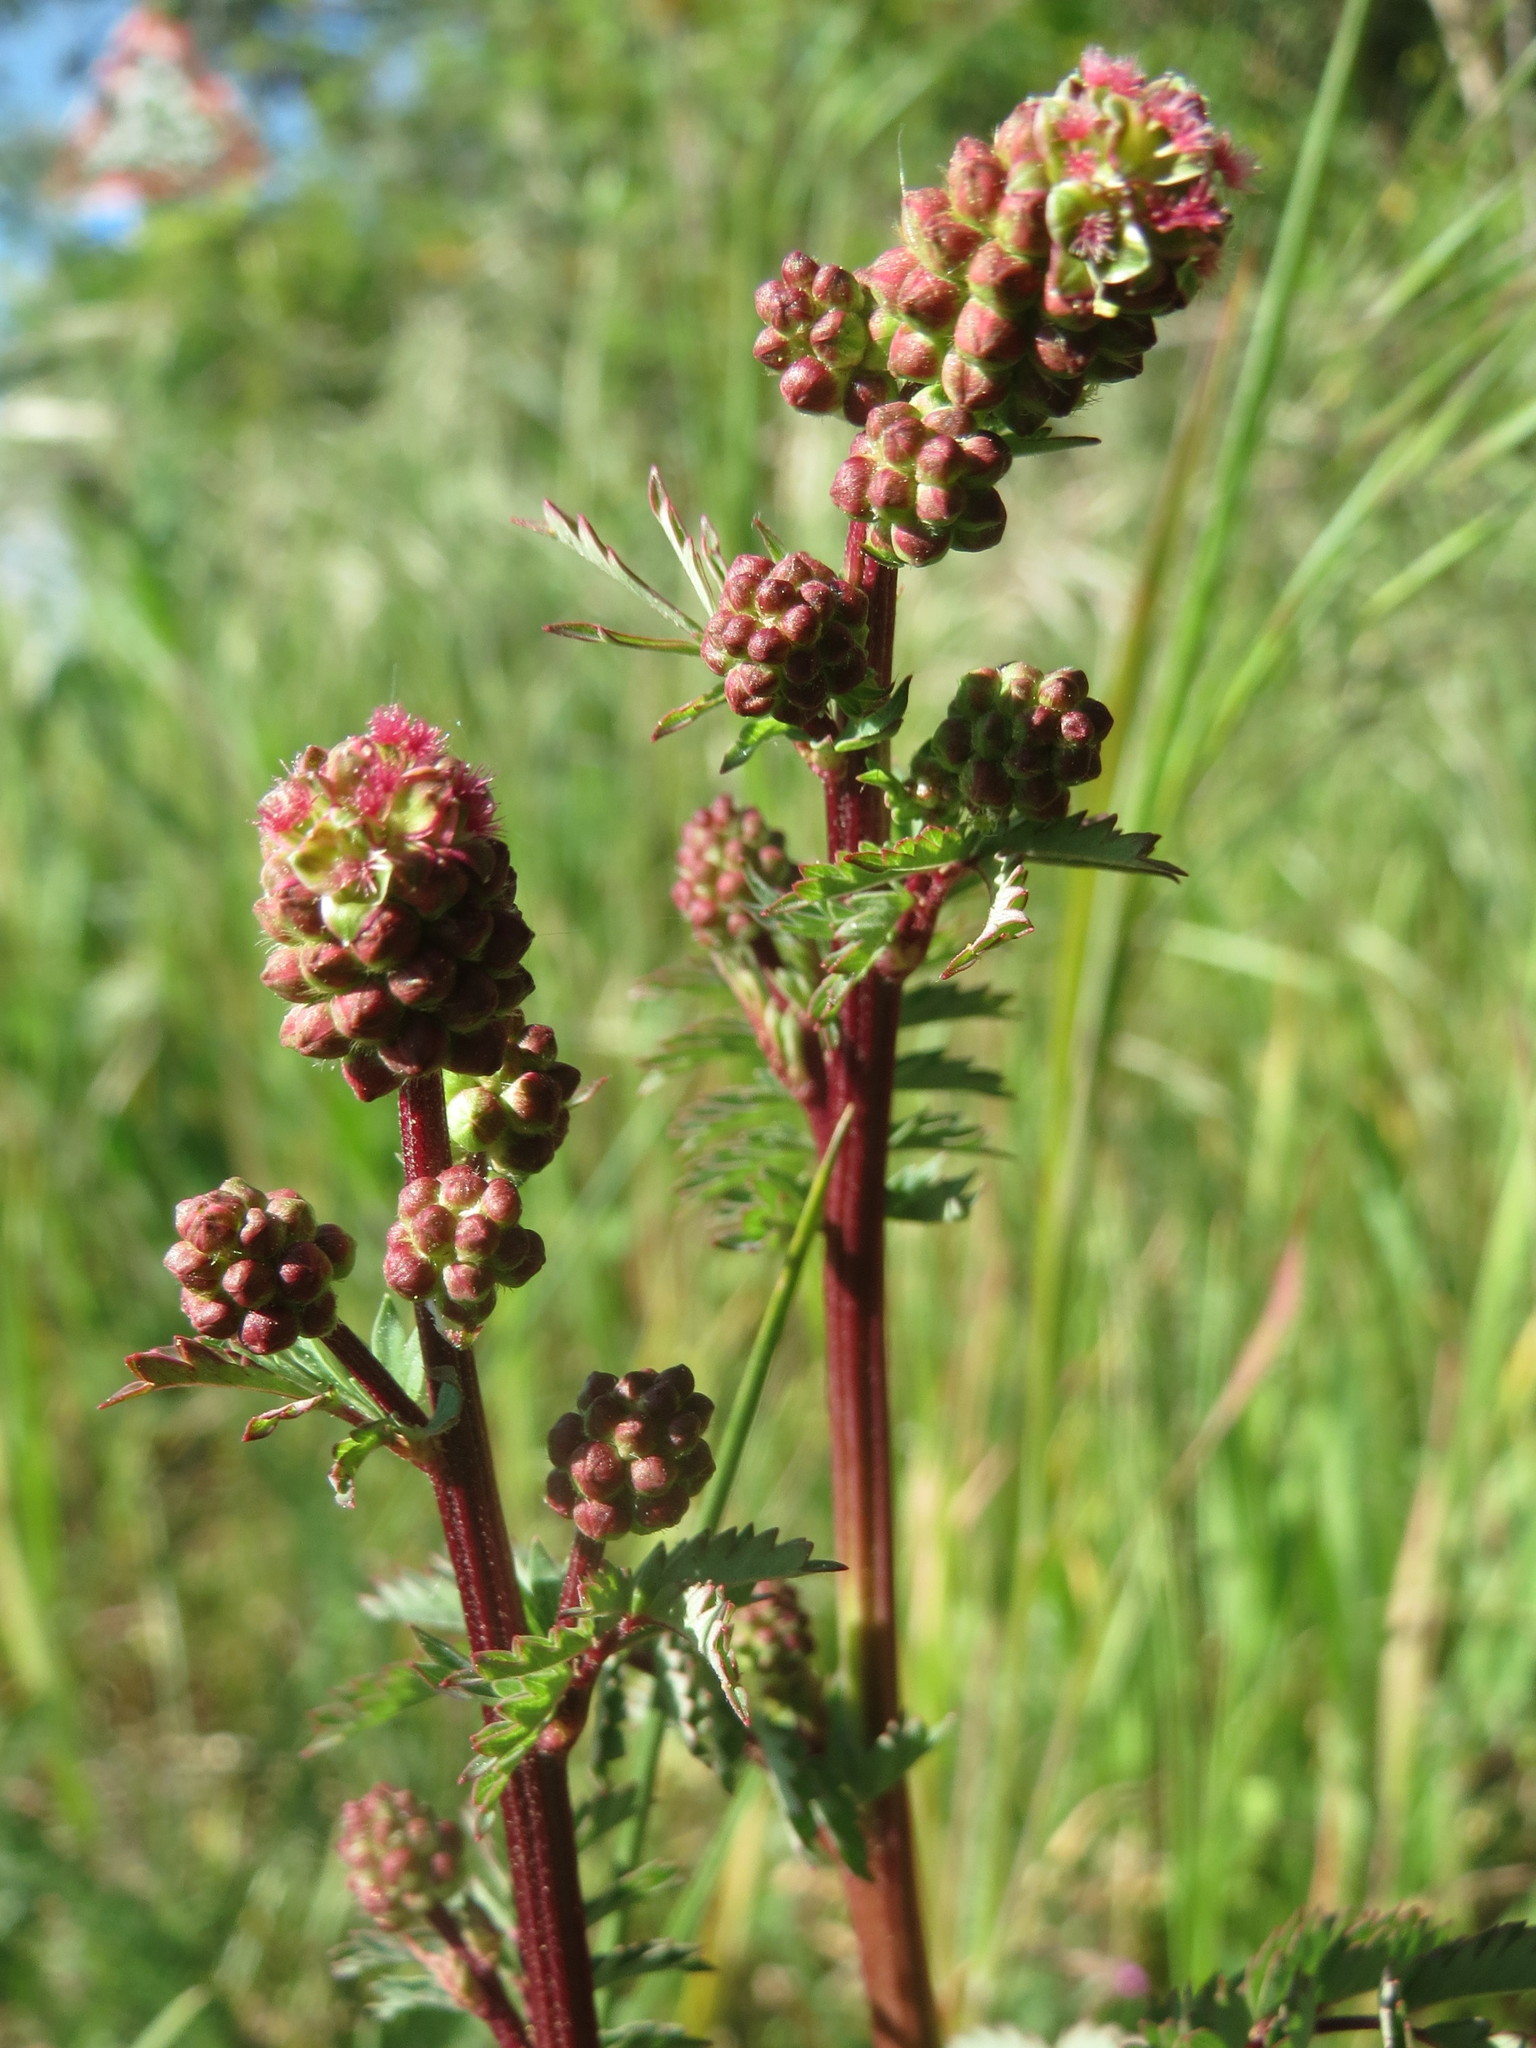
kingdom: Plantae
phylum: Tracheophyta
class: Magnoliopsida
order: Rosales
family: Rosaceae
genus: Poterium
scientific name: Poterium sanguisorba
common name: Salad burnet
